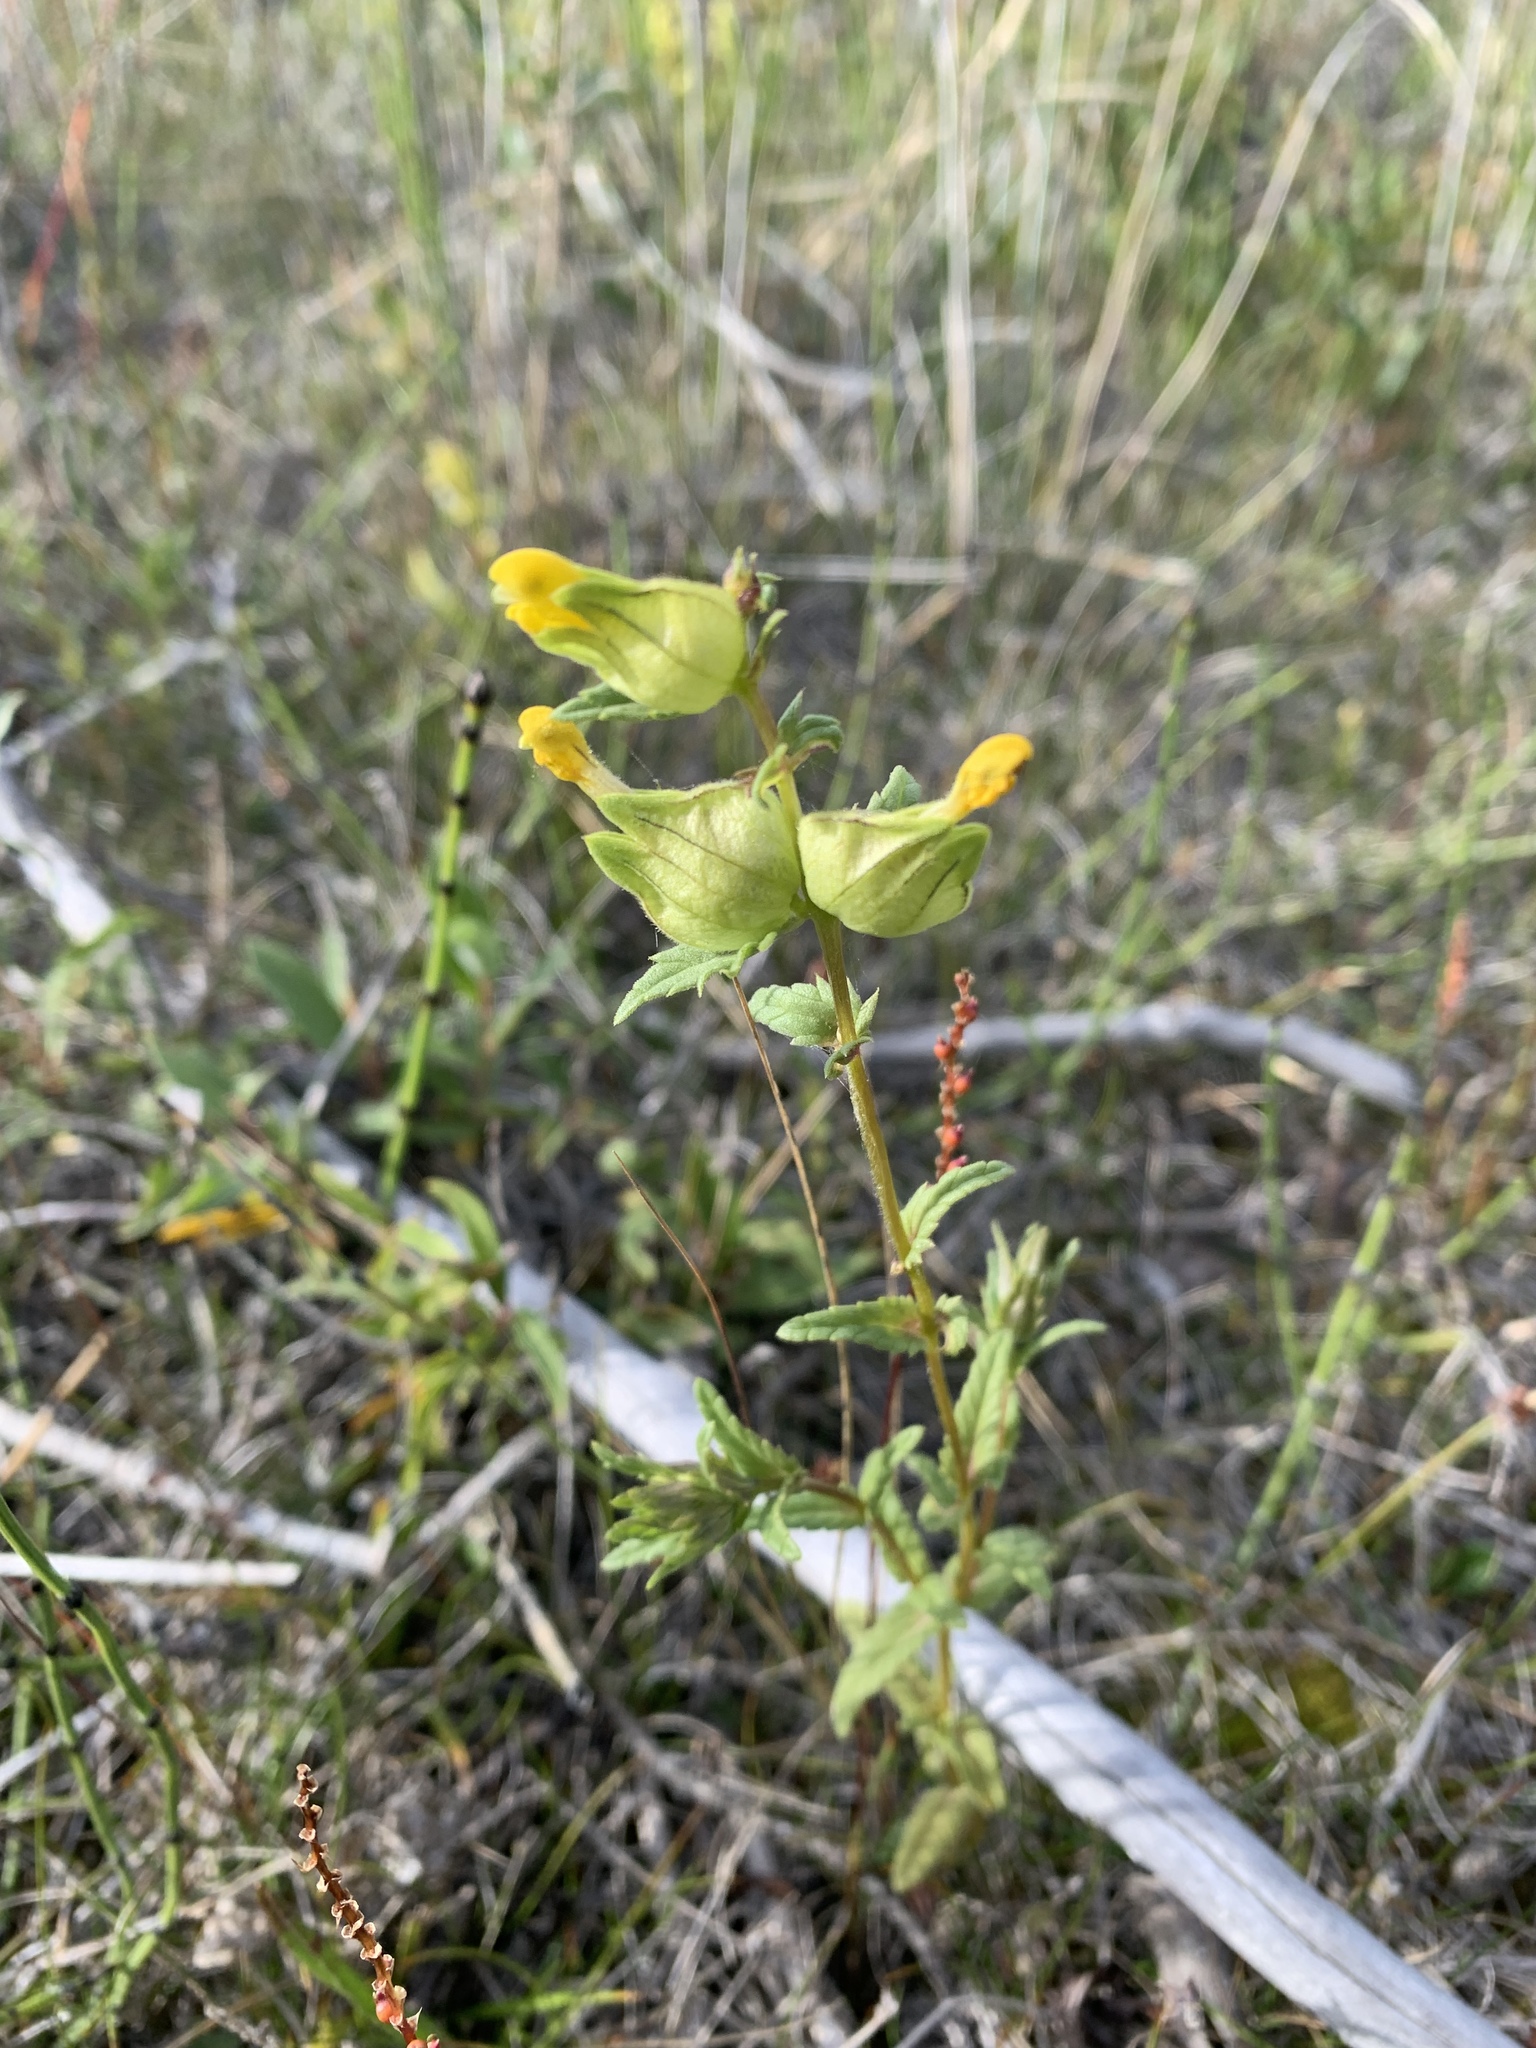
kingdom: Plantae
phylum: Tracheophyta
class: Magnoliopsida
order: Lamiales
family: Orobanchaceae
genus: Rhinanthus
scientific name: Rhinanthus groenlandicus
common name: Little yellow rattle
